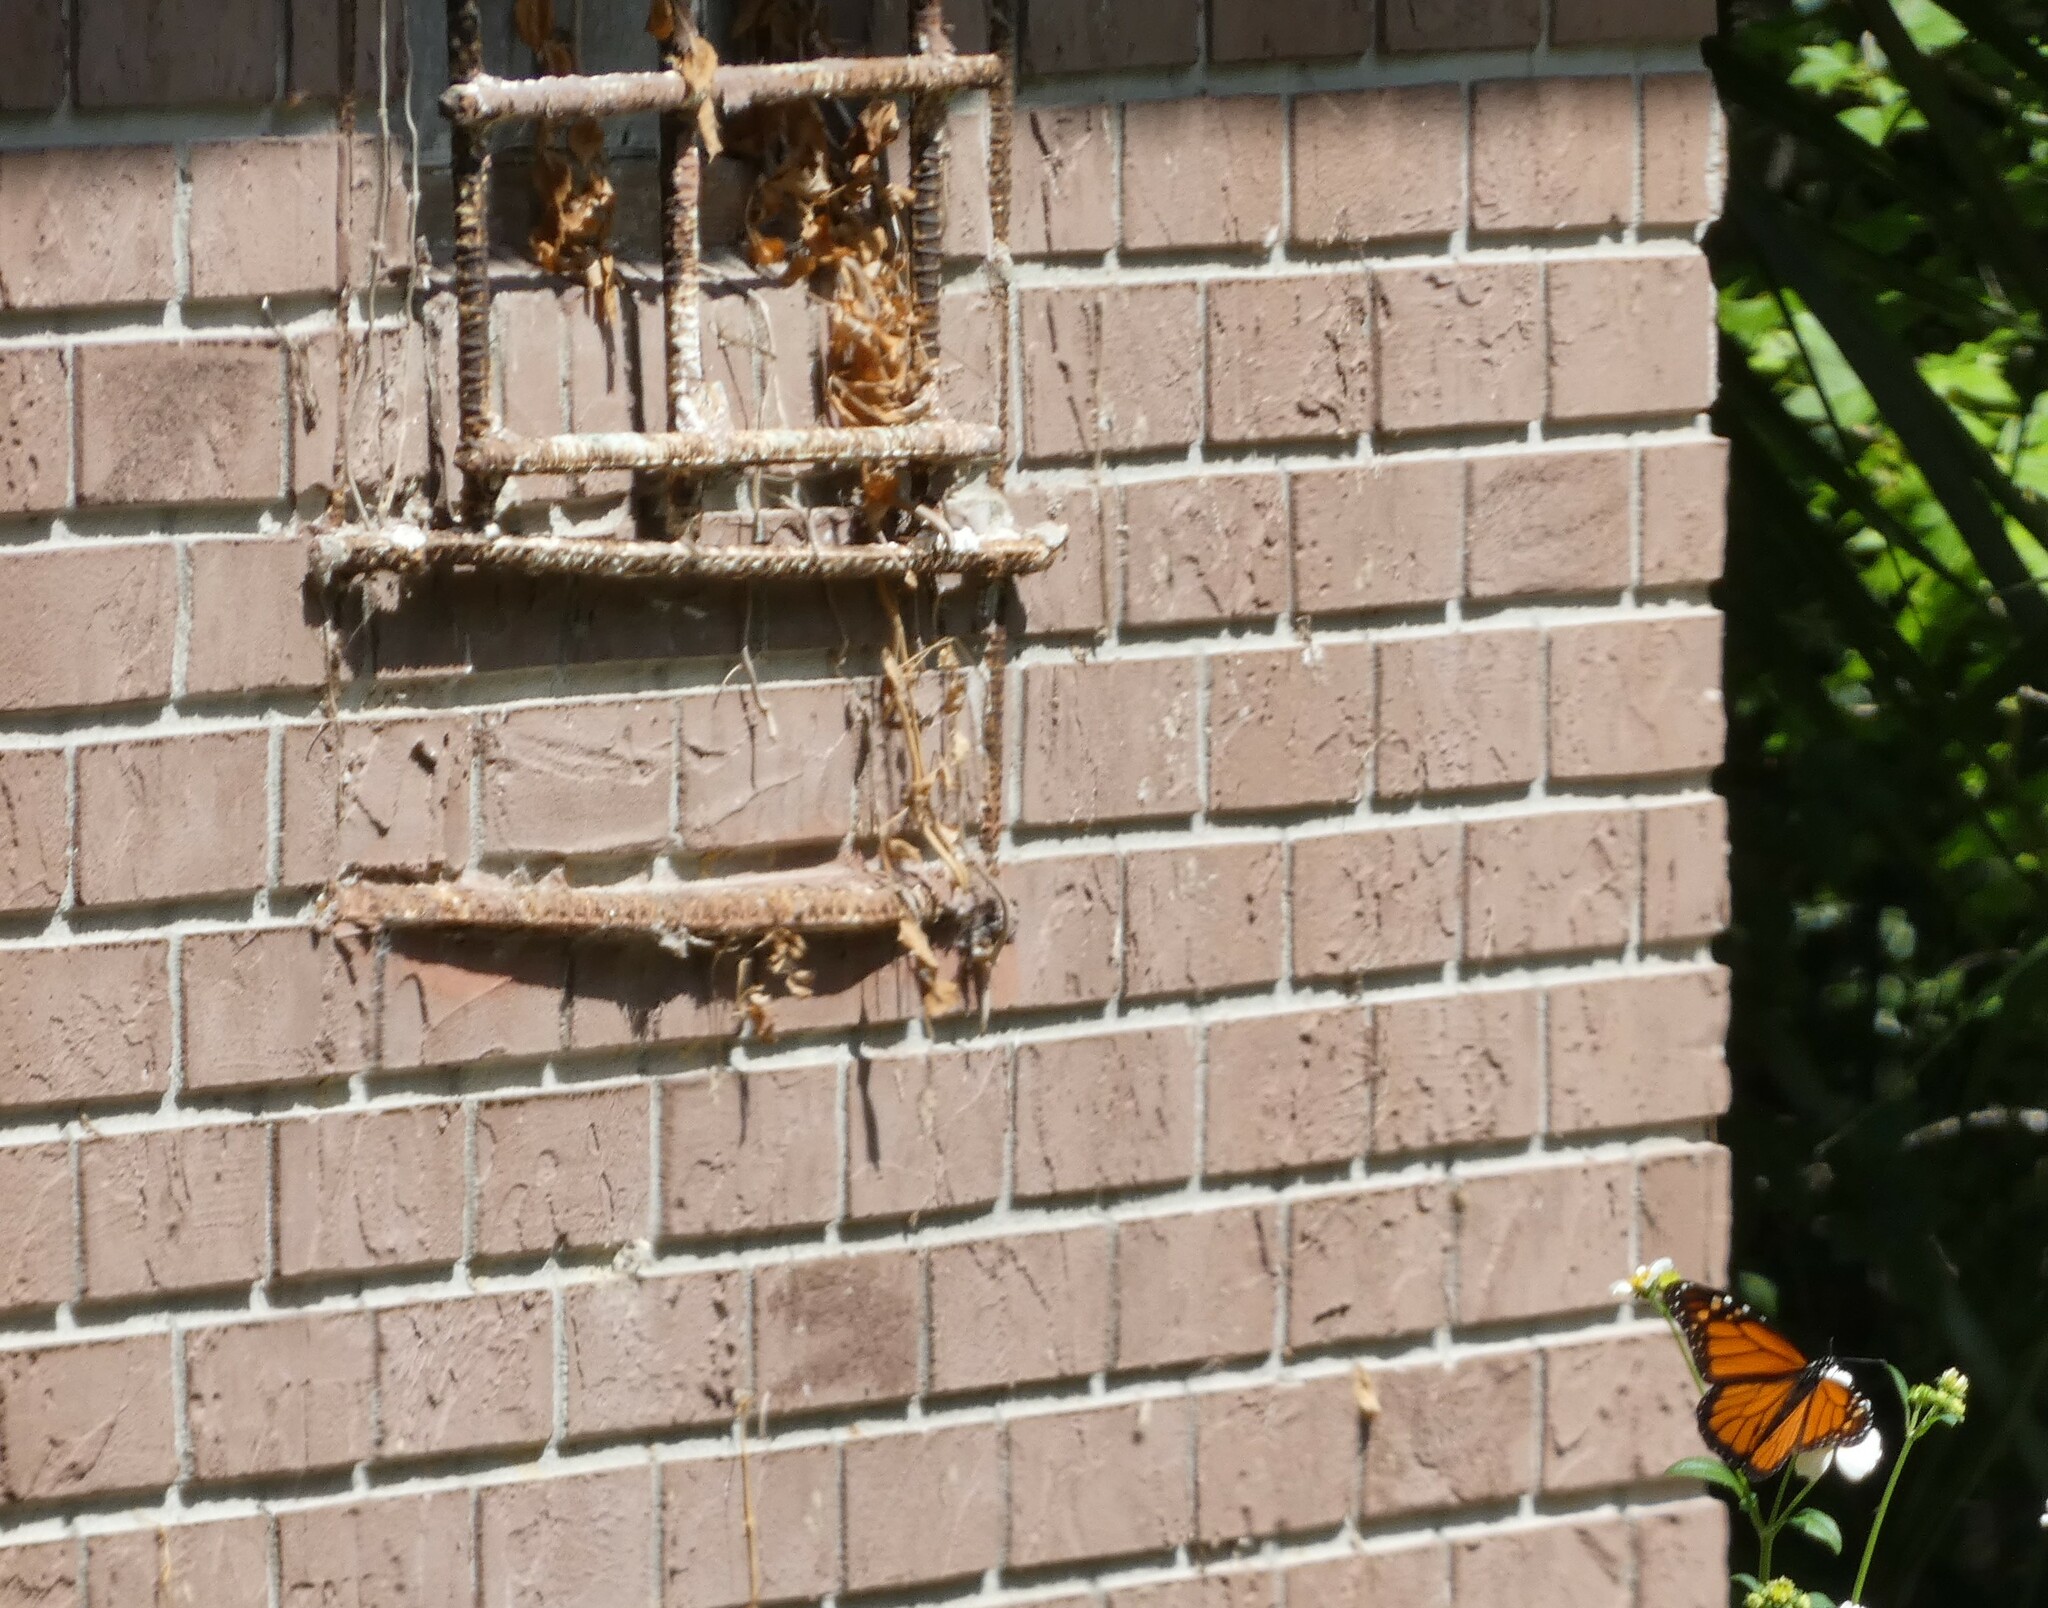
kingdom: Animalia
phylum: Arthropoda
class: Insecta
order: Lepidoptera
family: Nymphalidae
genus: Danaus
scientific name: Danaus plexippus
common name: Monarch
